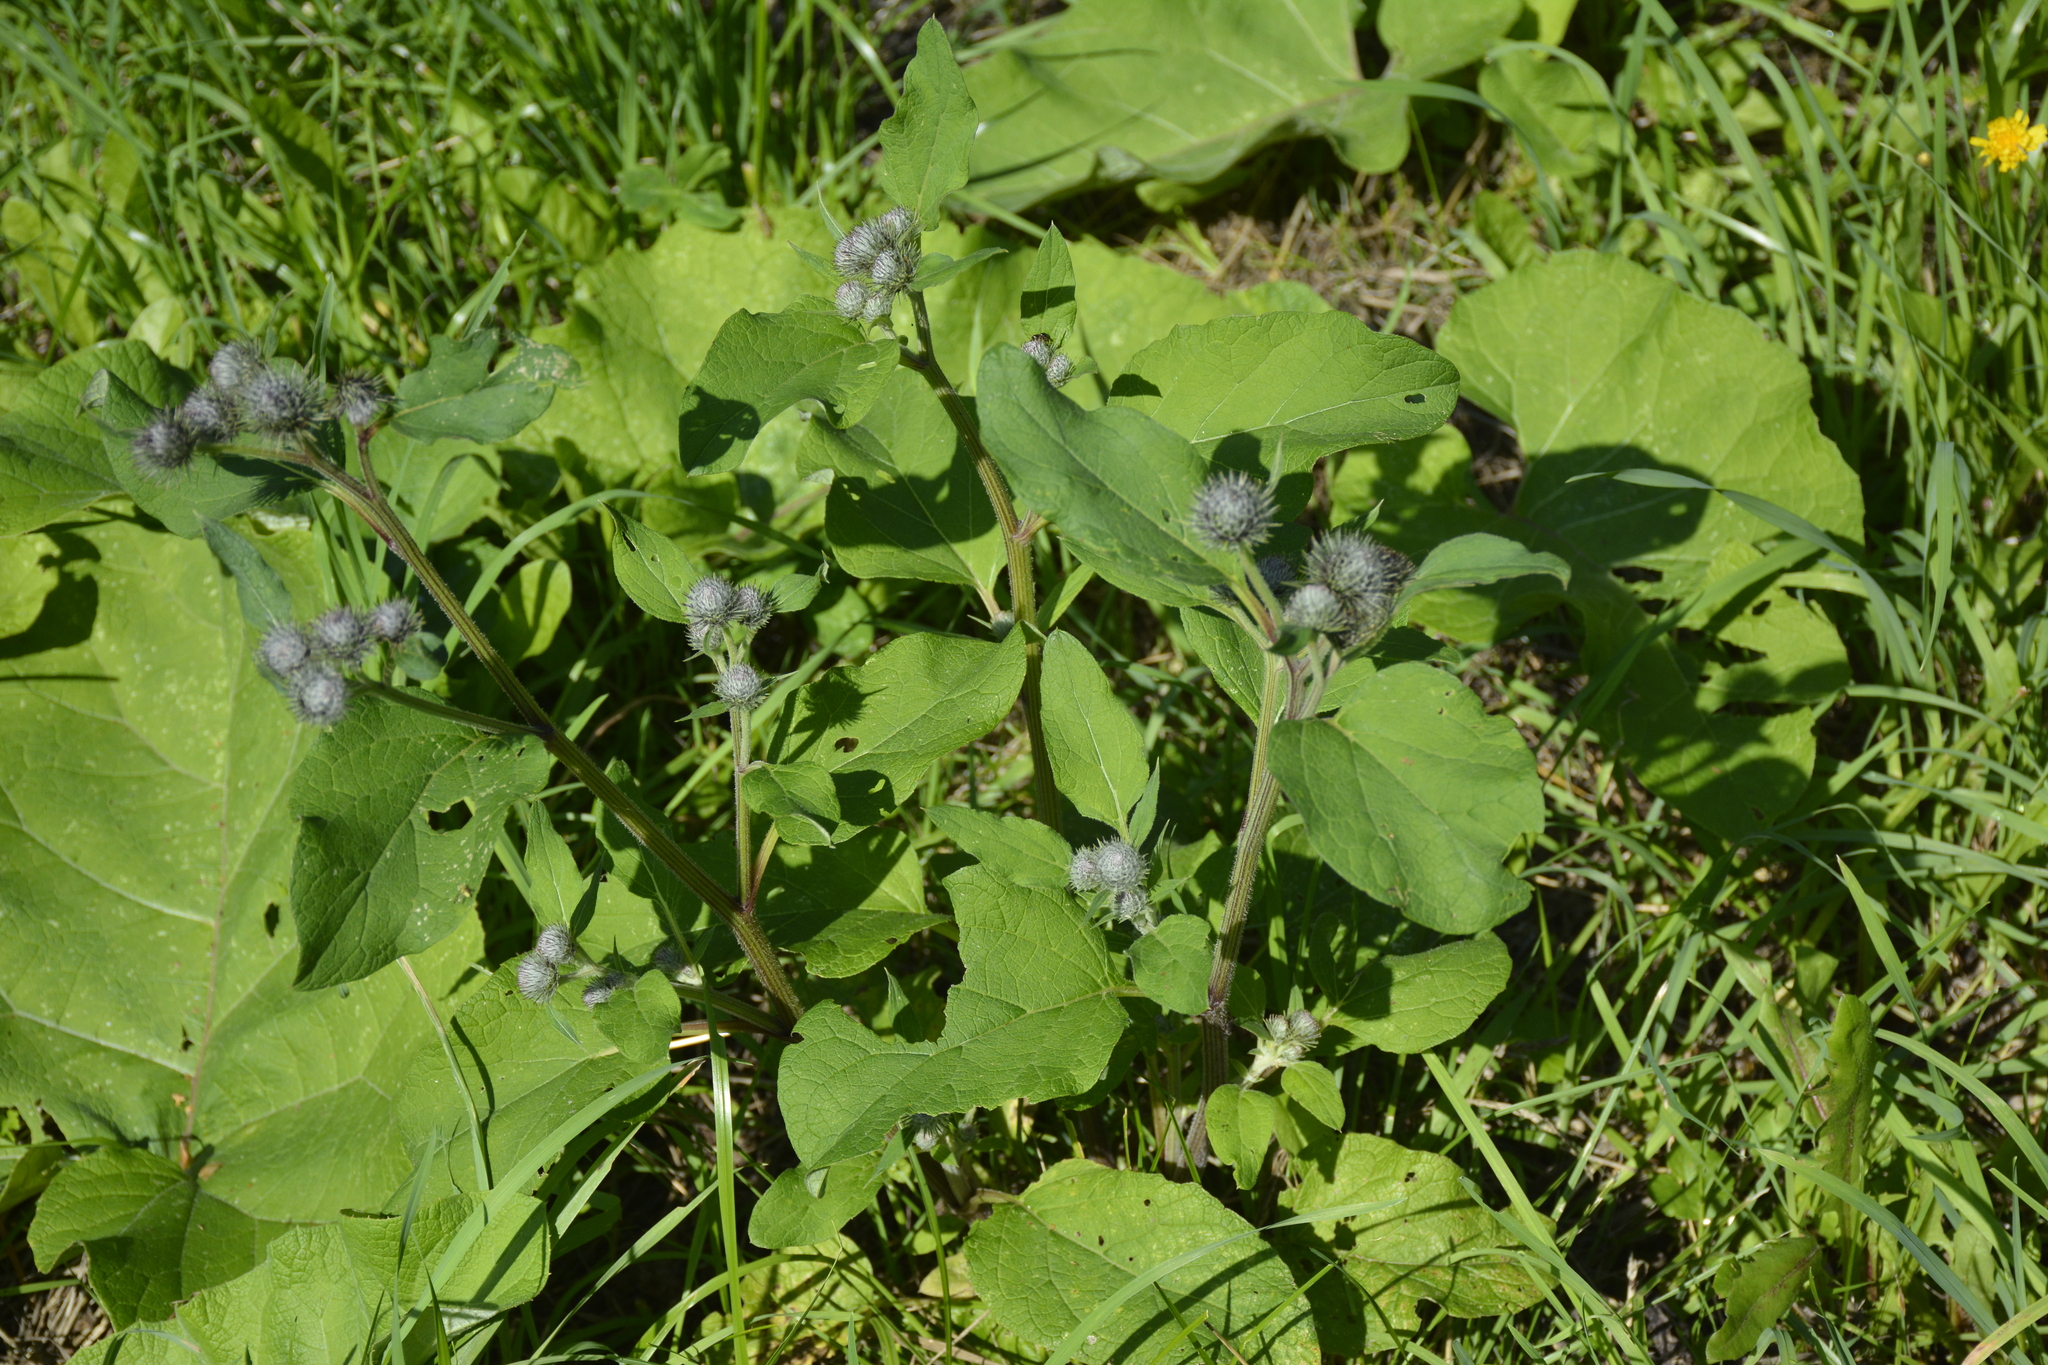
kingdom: Plantae
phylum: Tracheophyta
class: Magnoliopsida
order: Asterales
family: Asteraceae
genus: Arctium
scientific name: Arctium tomentosum
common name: Woolly burdock
